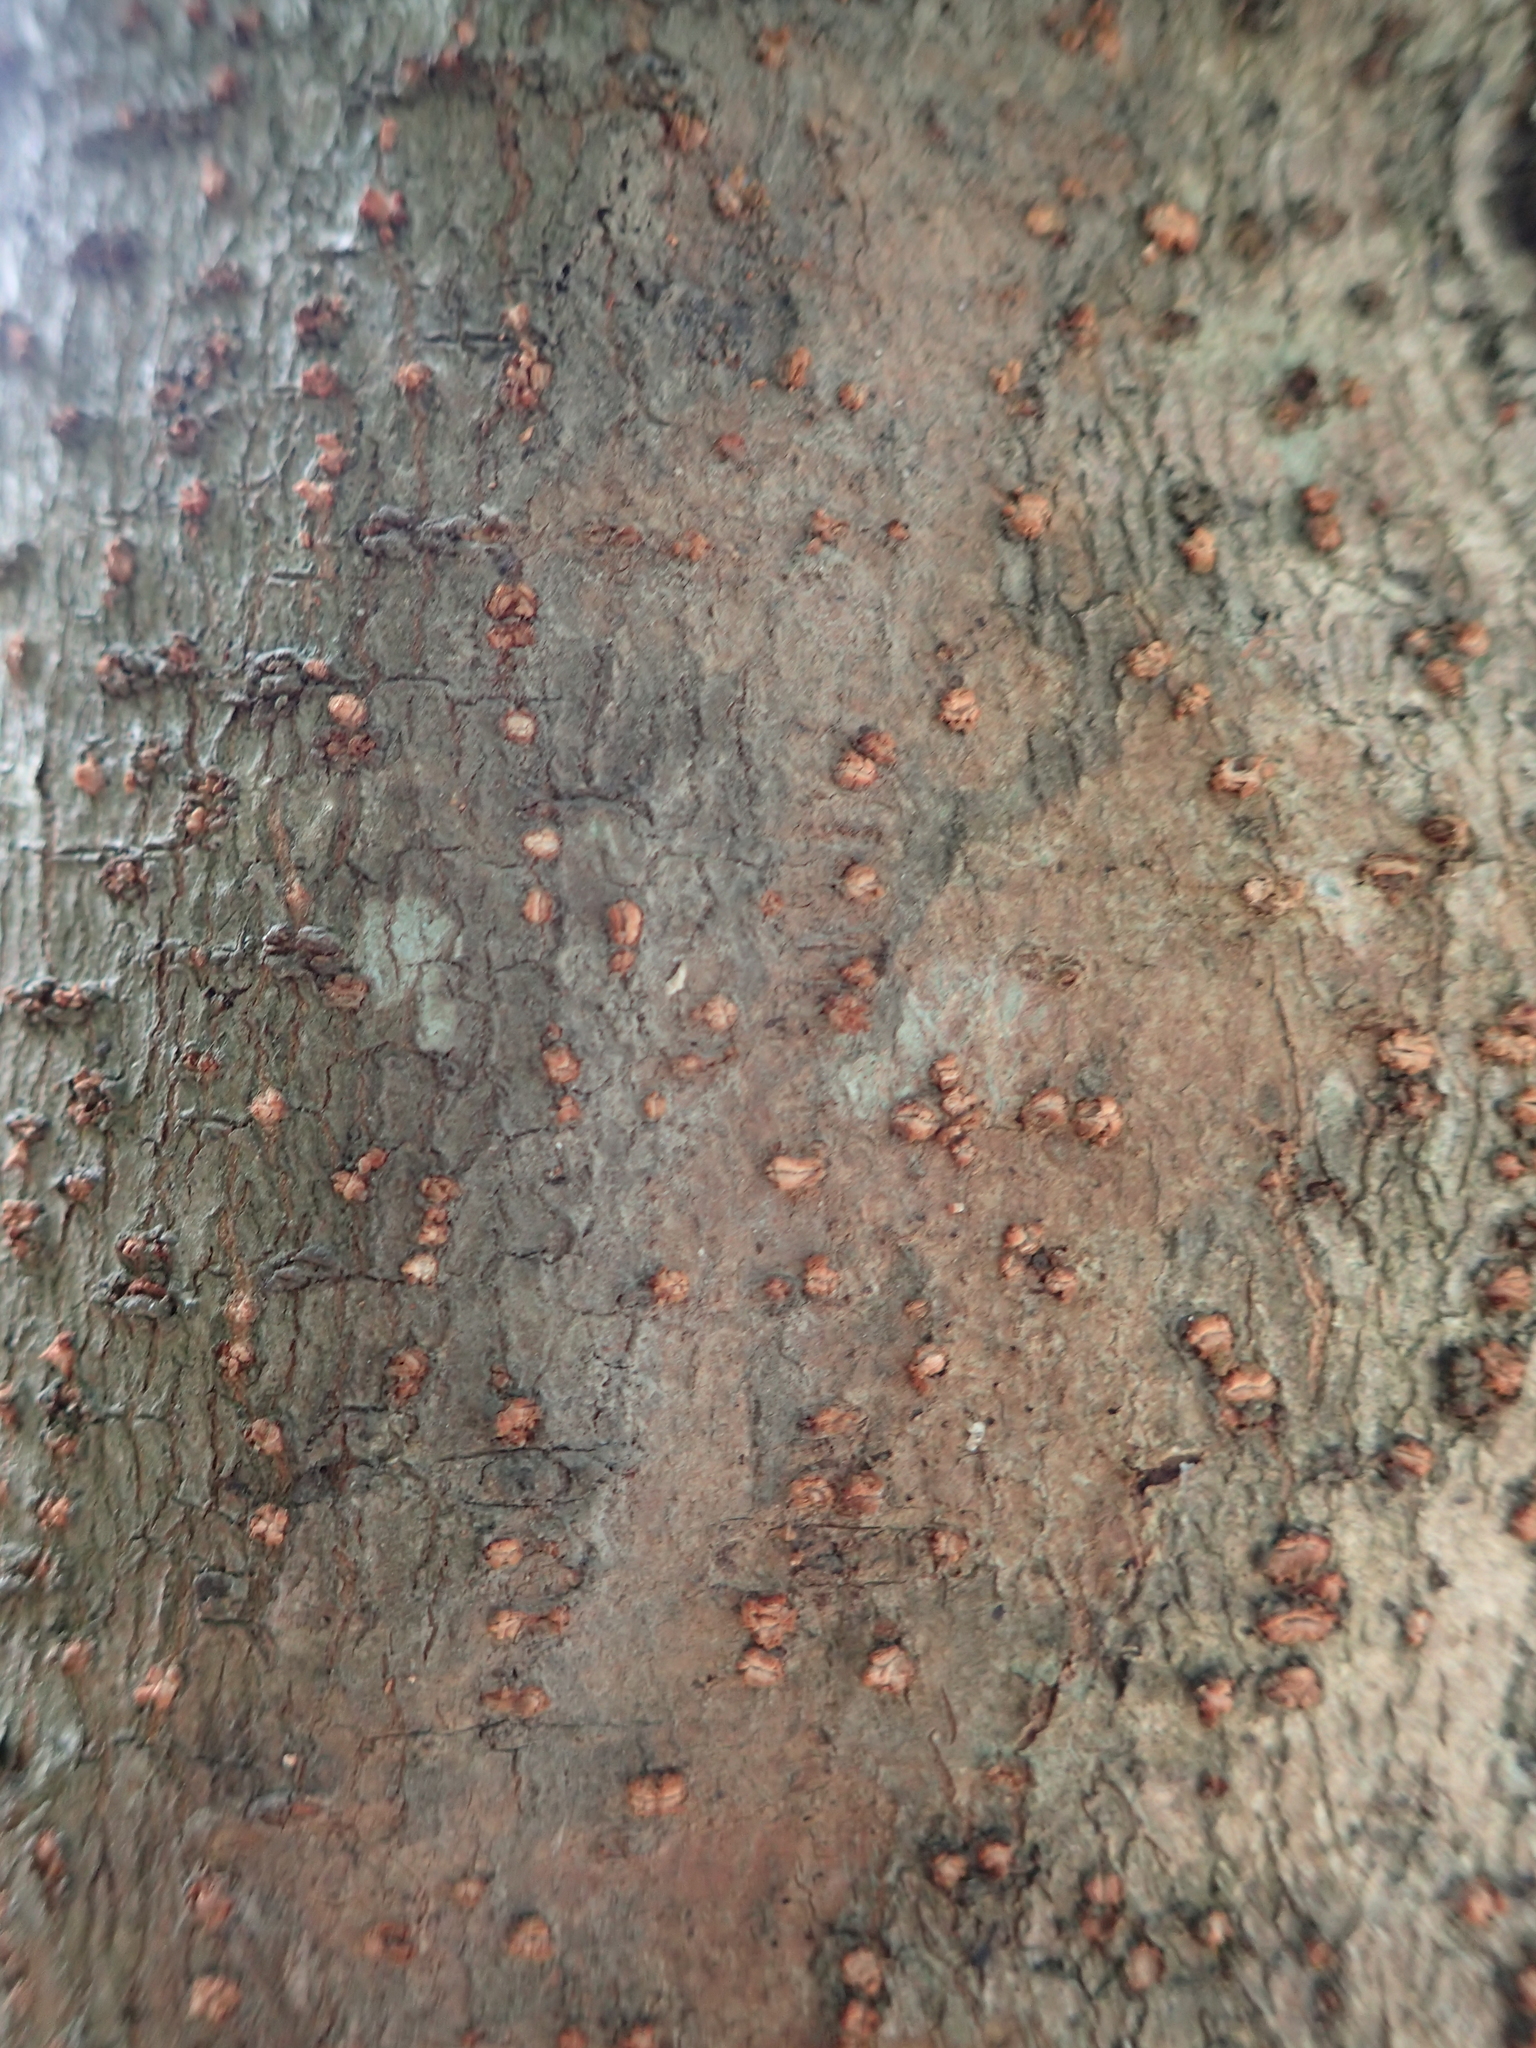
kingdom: Plantae
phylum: Tracheophyta
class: Magnoliopsida
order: Malpighiales
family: Phyllanthaceae
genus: Bridelia
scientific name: Bridelia balansae
